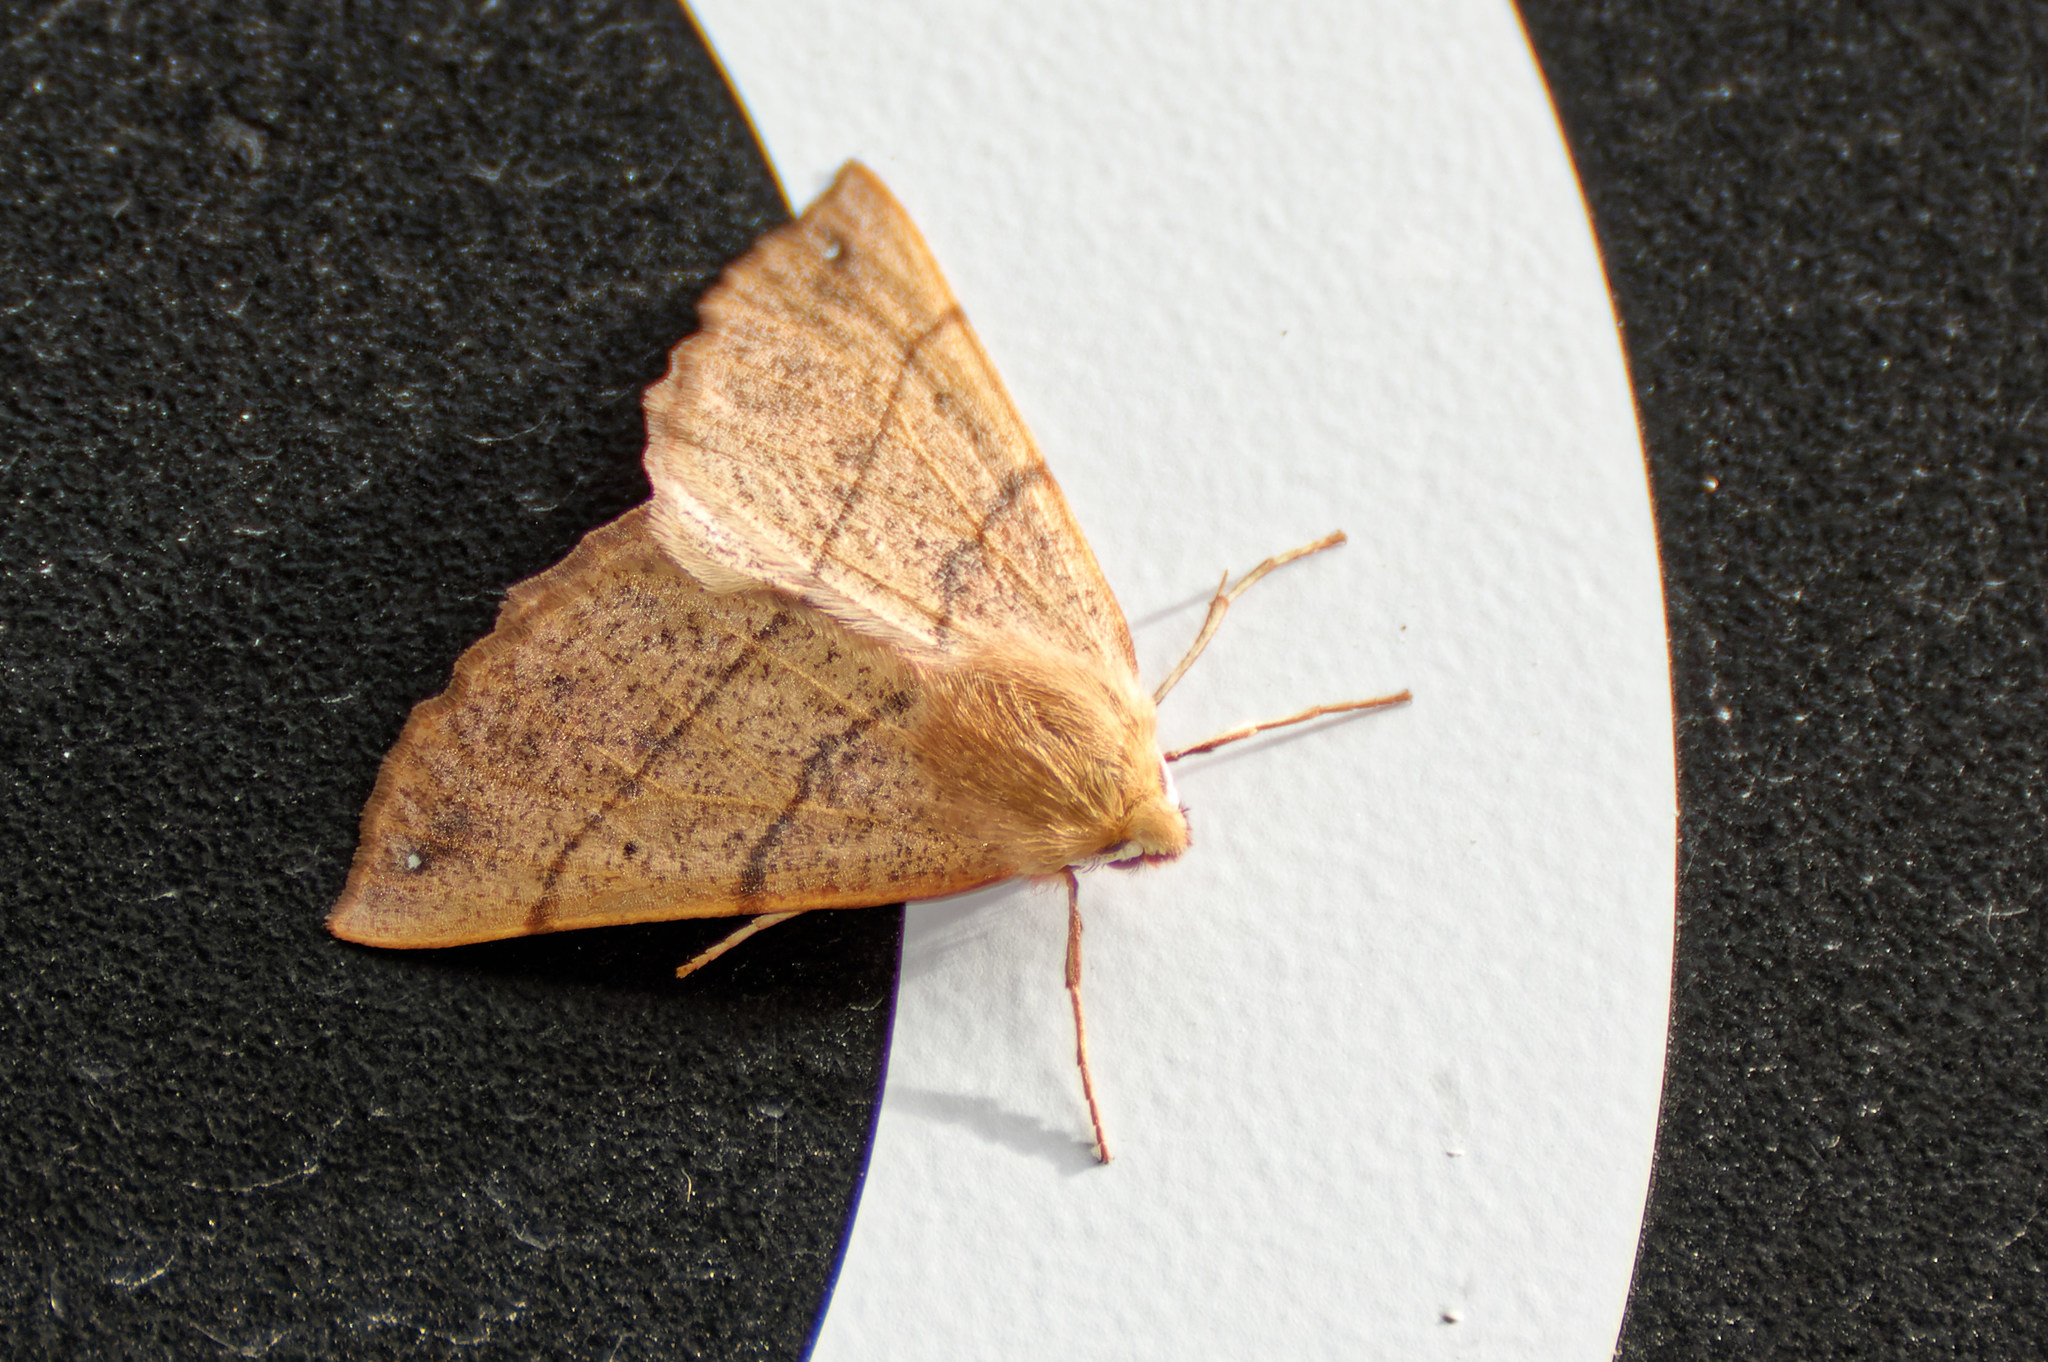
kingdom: Animalia
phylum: Arthropoda
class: Insecta
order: Lepidoptera
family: Geometridae
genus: Colotois
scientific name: Colotois pennaria
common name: Feathered thorn
